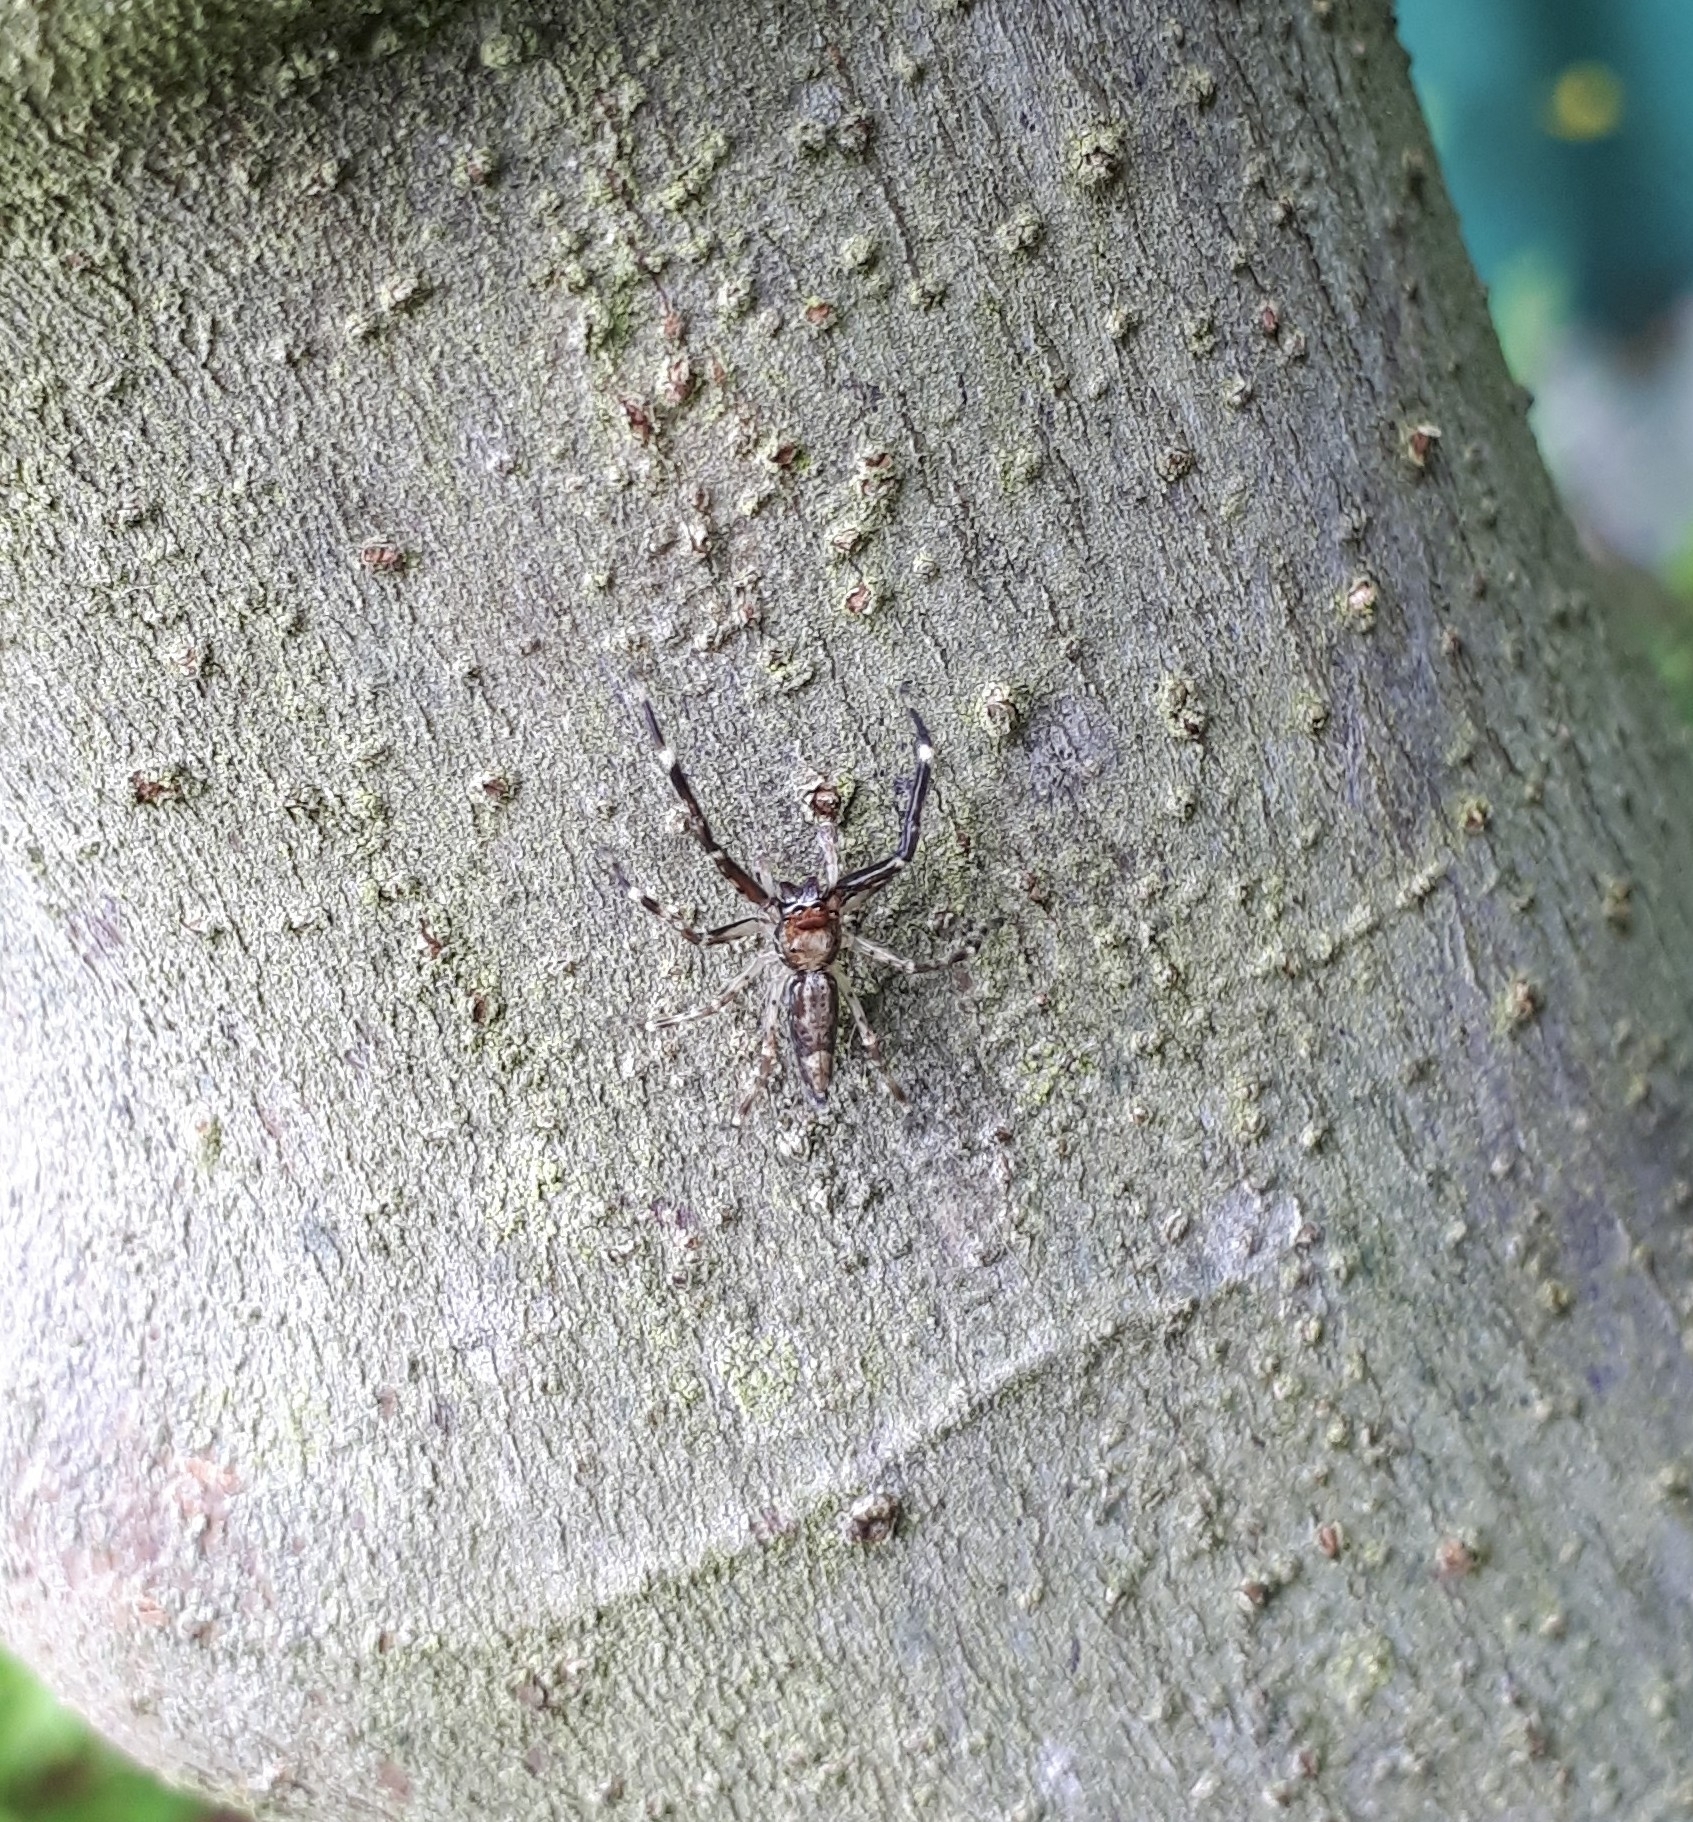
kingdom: Animalia
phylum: Arthropoda
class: Arachnida
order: Araneae
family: Salticidae
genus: Helpis
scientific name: Helpis minitabunda
